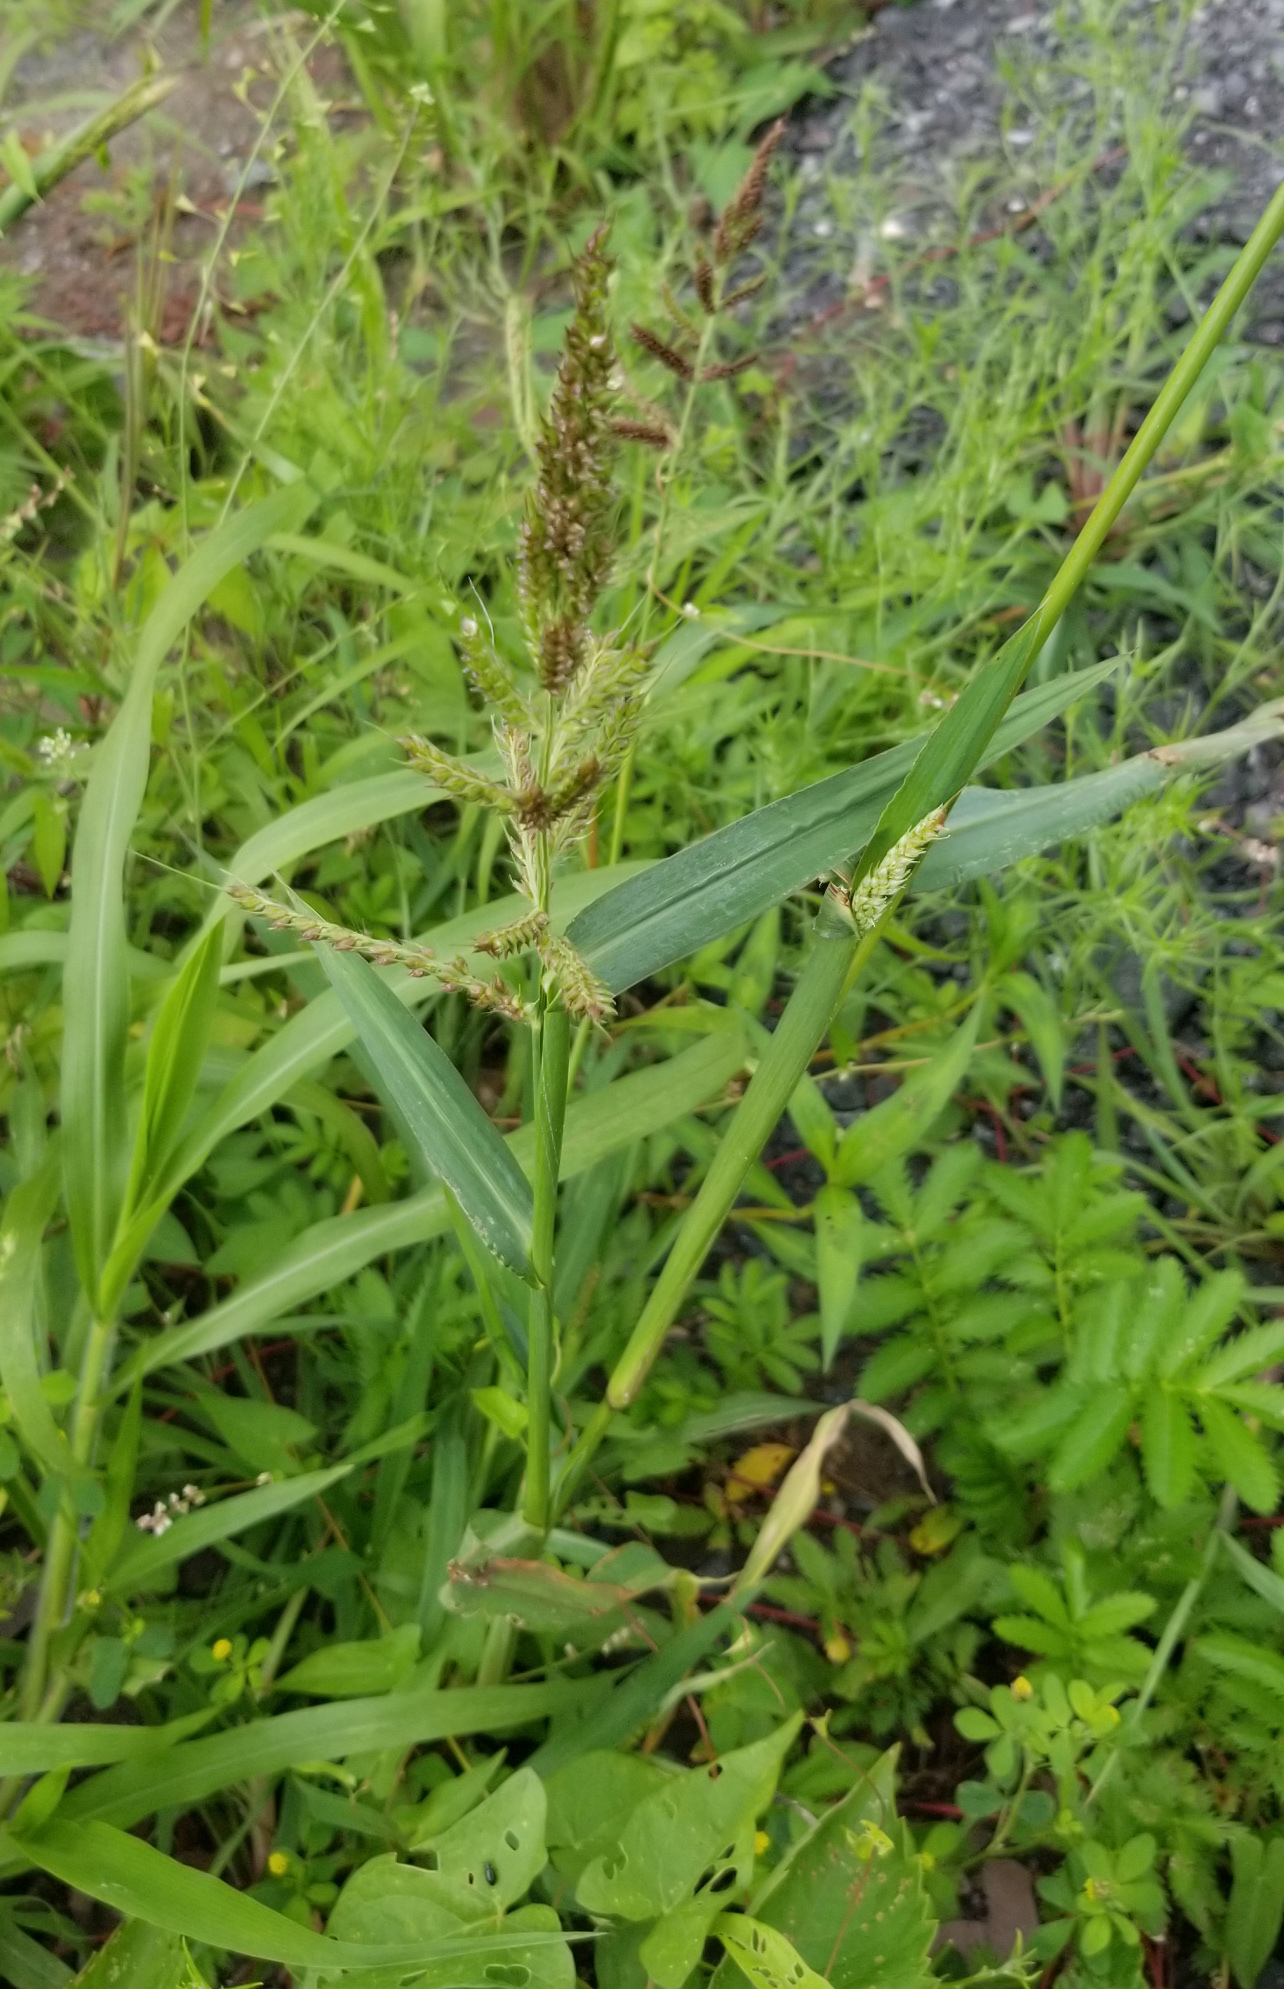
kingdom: Plantae
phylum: Tracheophyta
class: Liliopsida
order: Poales
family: Poaceae
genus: Echinochloa
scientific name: Echinochloa crus-galli
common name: Cockspur
